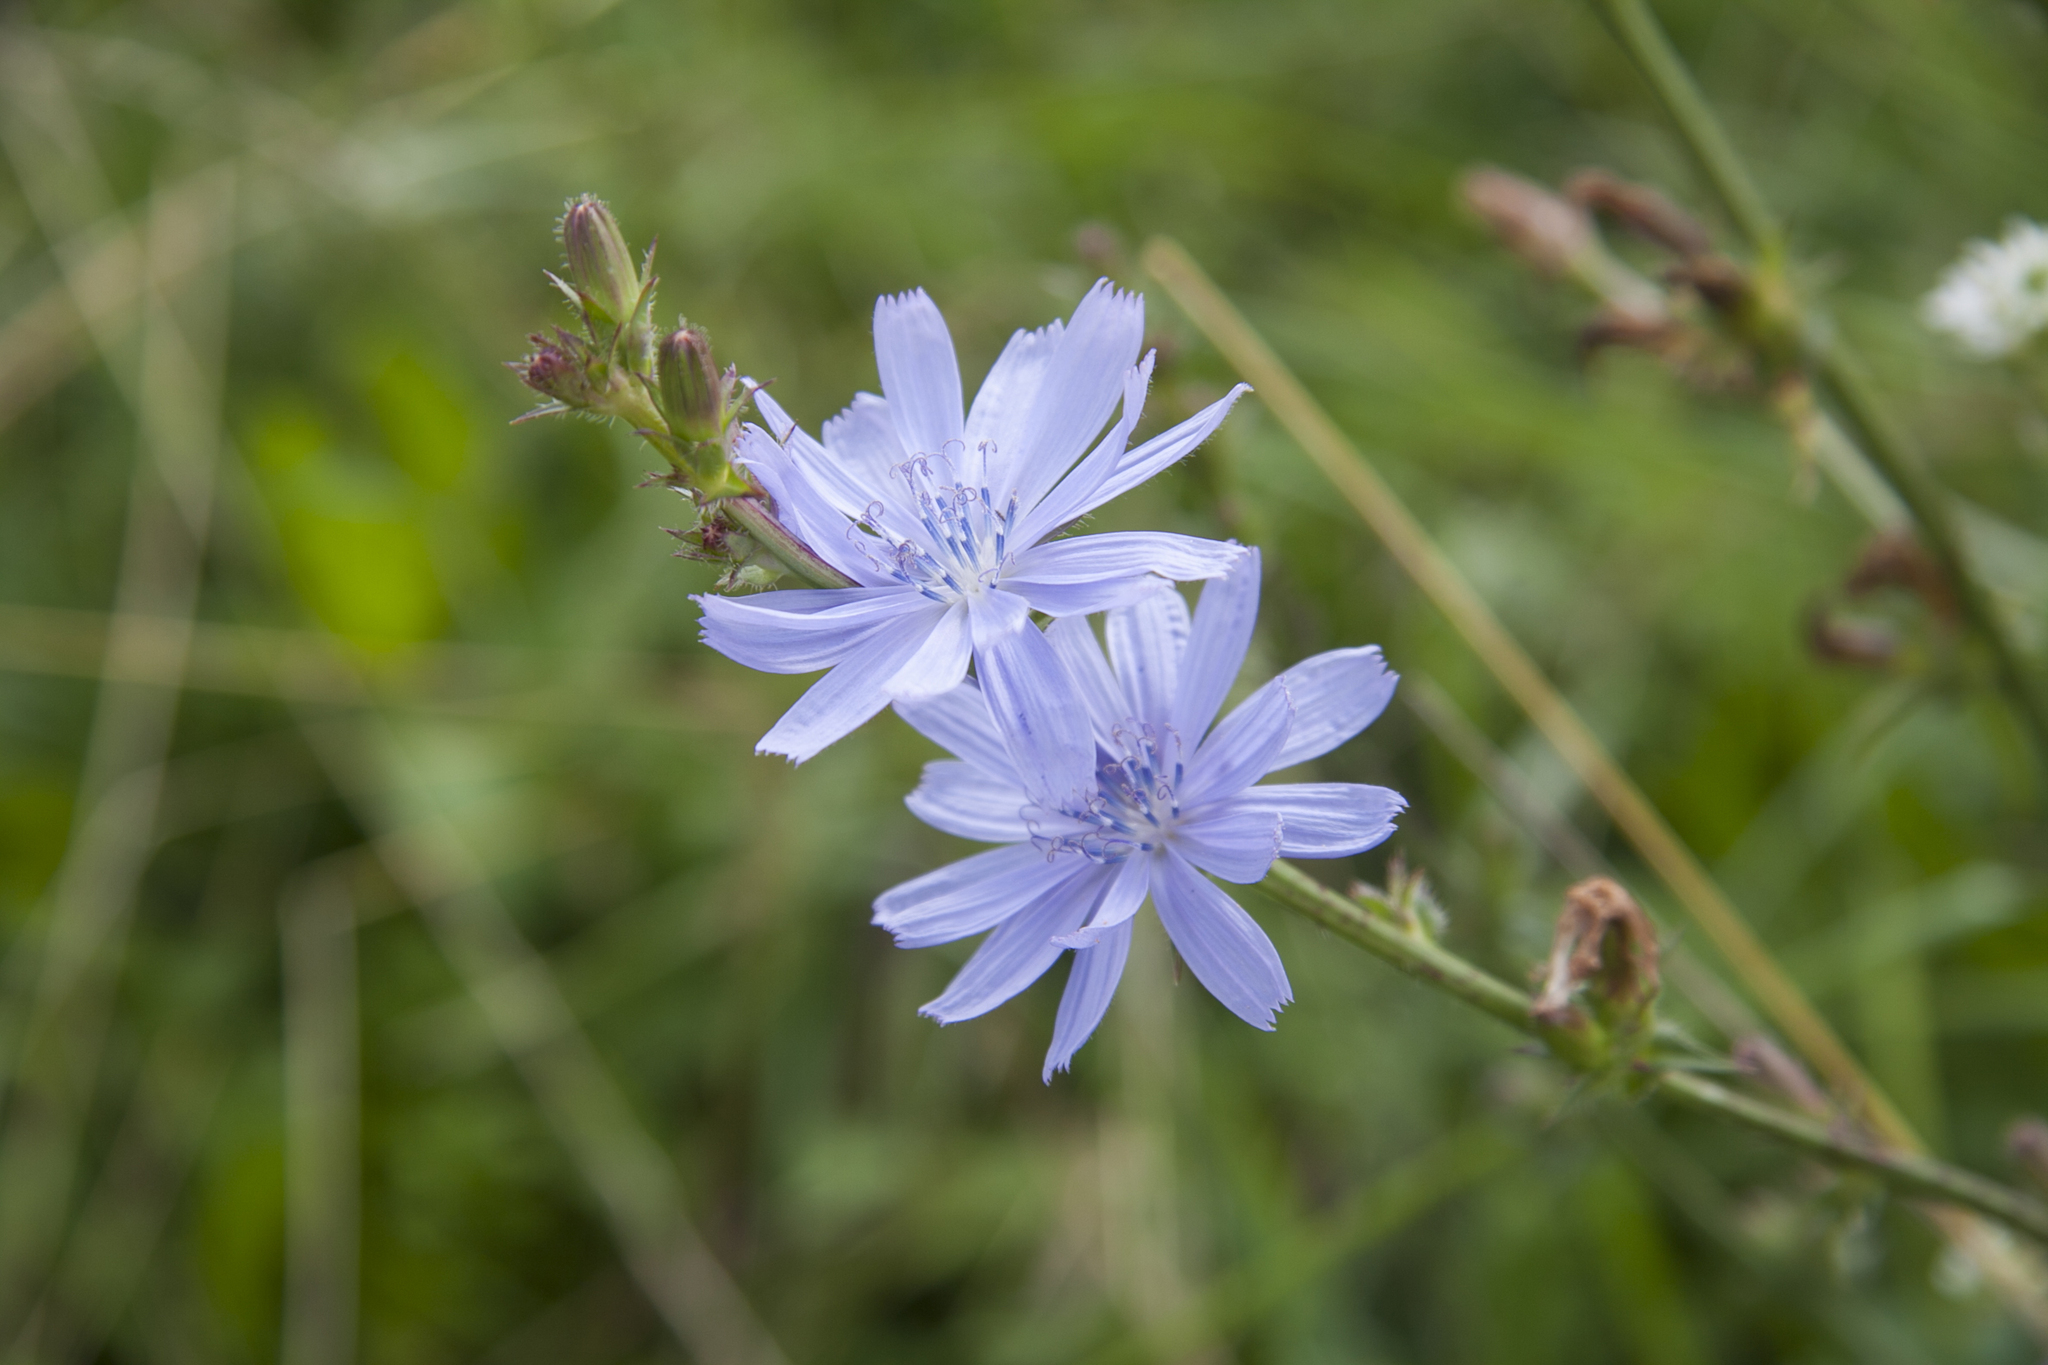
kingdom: Plantae
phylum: Tracheophyta
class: Magnoliopsida
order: Asterales
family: Asteraceae
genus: Cichorium
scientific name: Cichorium intybus
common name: Chicory
